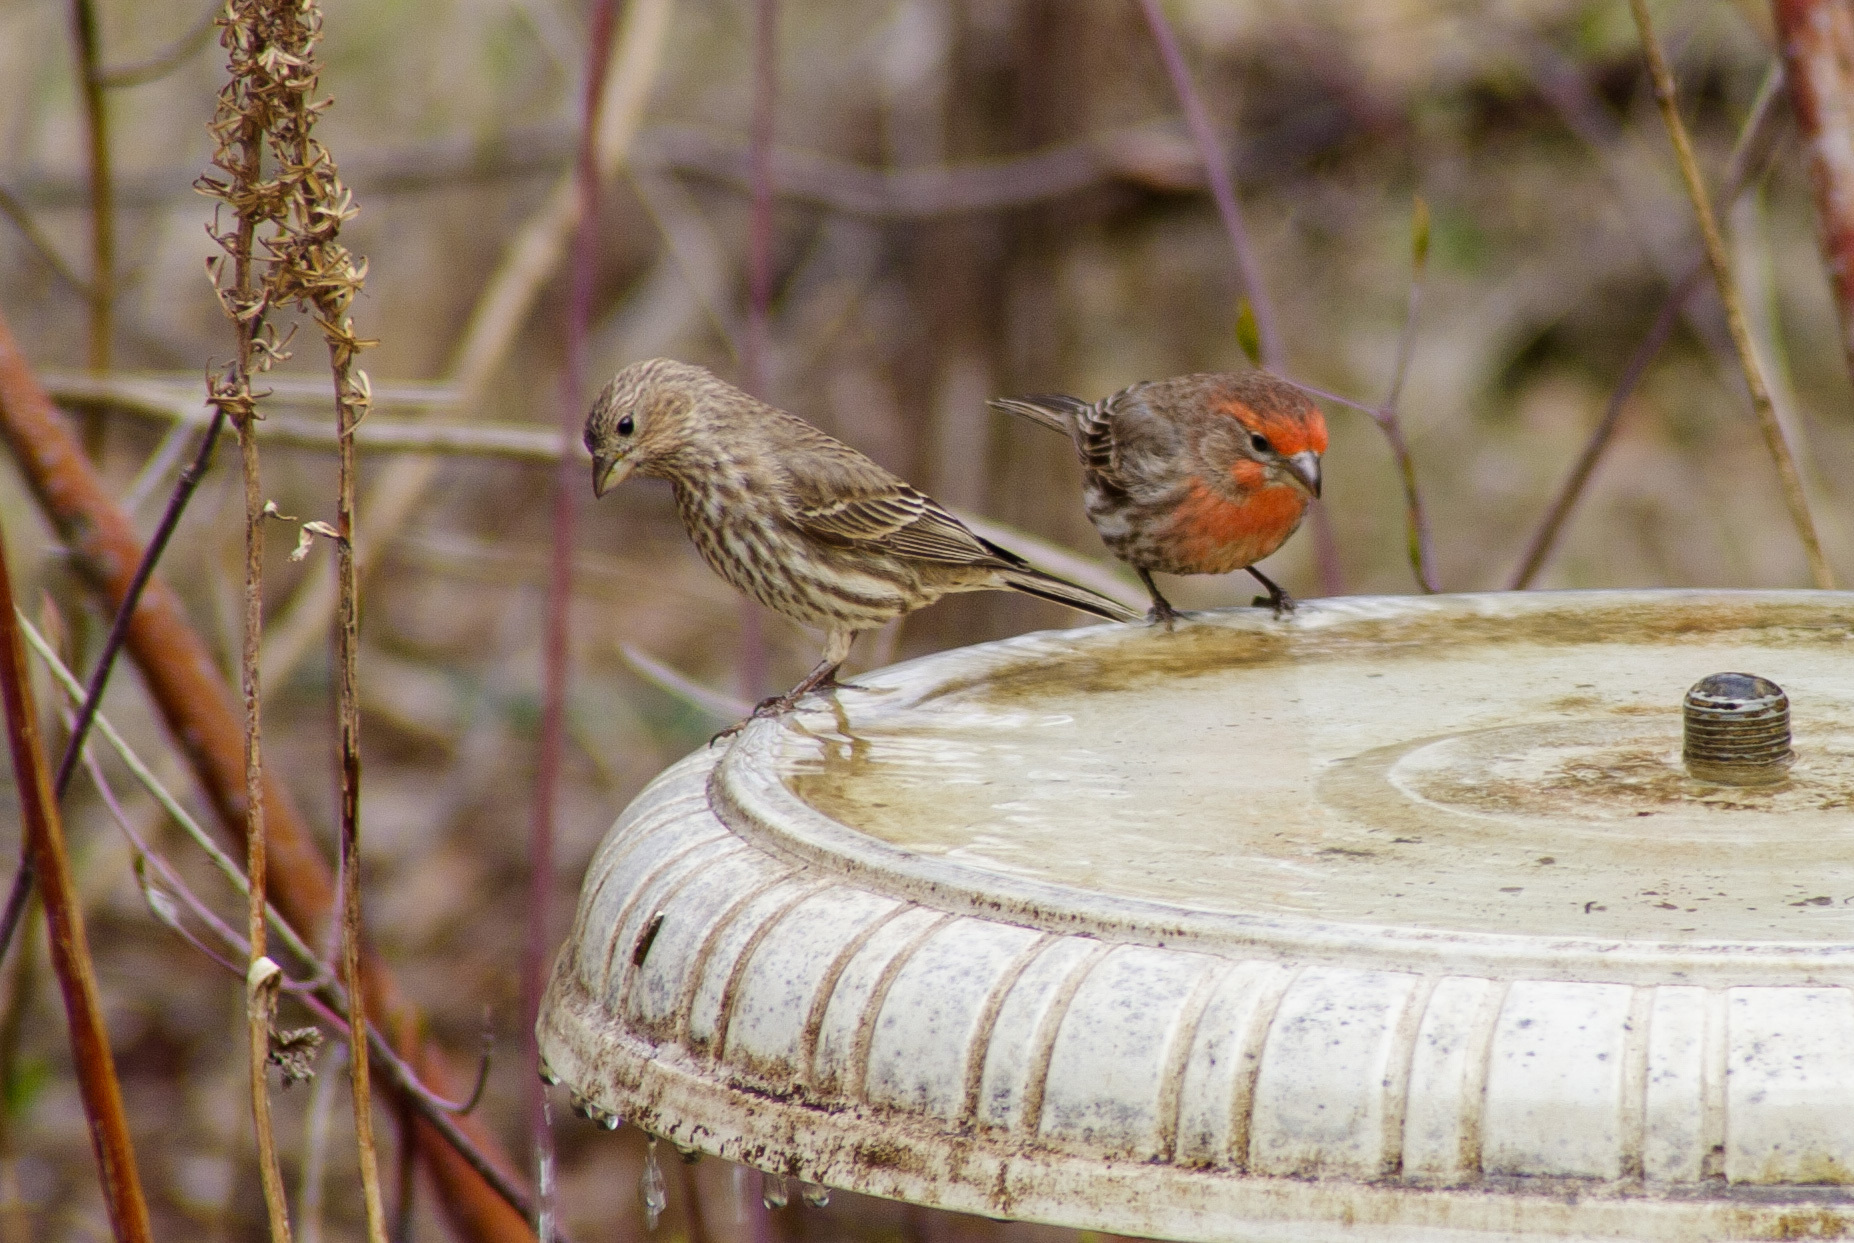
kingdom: Animalia
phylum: Chordata
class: Aves
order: Passeriformes
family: Fringillidae
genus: Haemorhous
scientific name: Haemorhous mexicanus
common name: House finch
